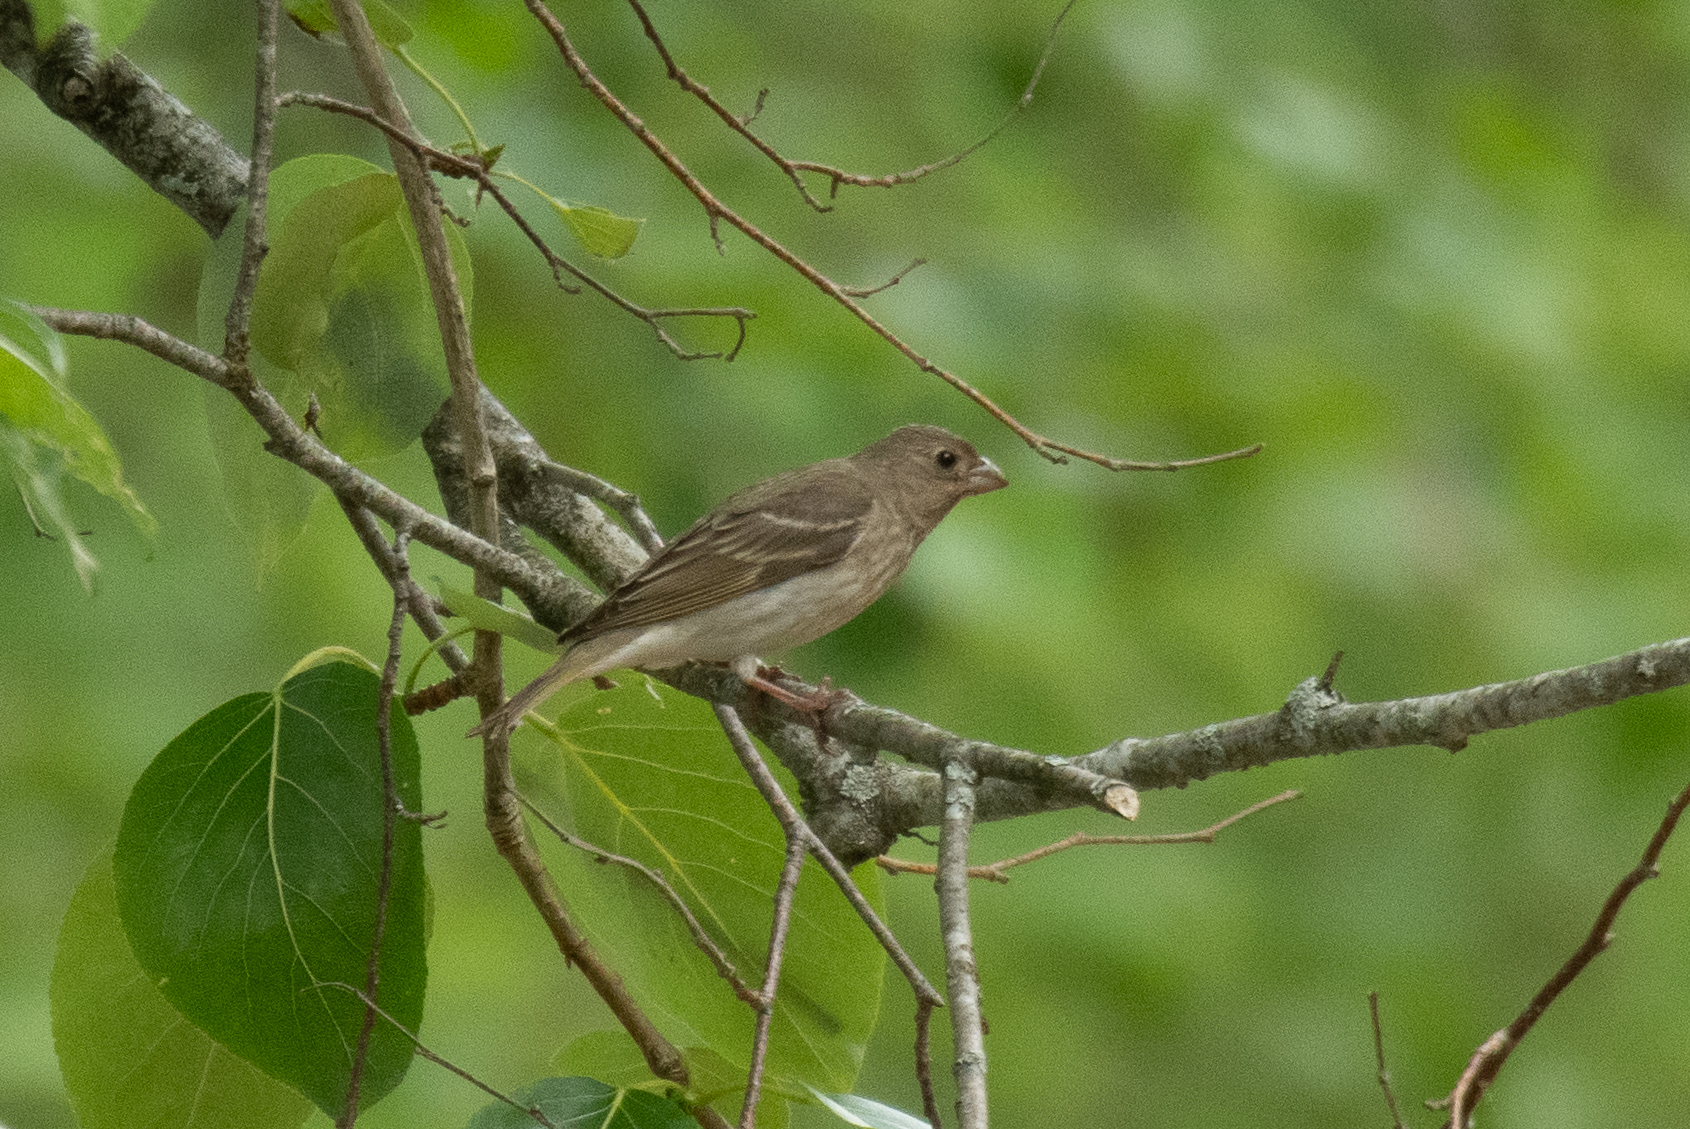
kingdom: Animalia
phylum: Chordata
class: Aves
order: Passeriformes
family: Fringillidae
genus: Carpodacus
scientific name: Carpodacus erythrinus
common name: Common rosefinch
